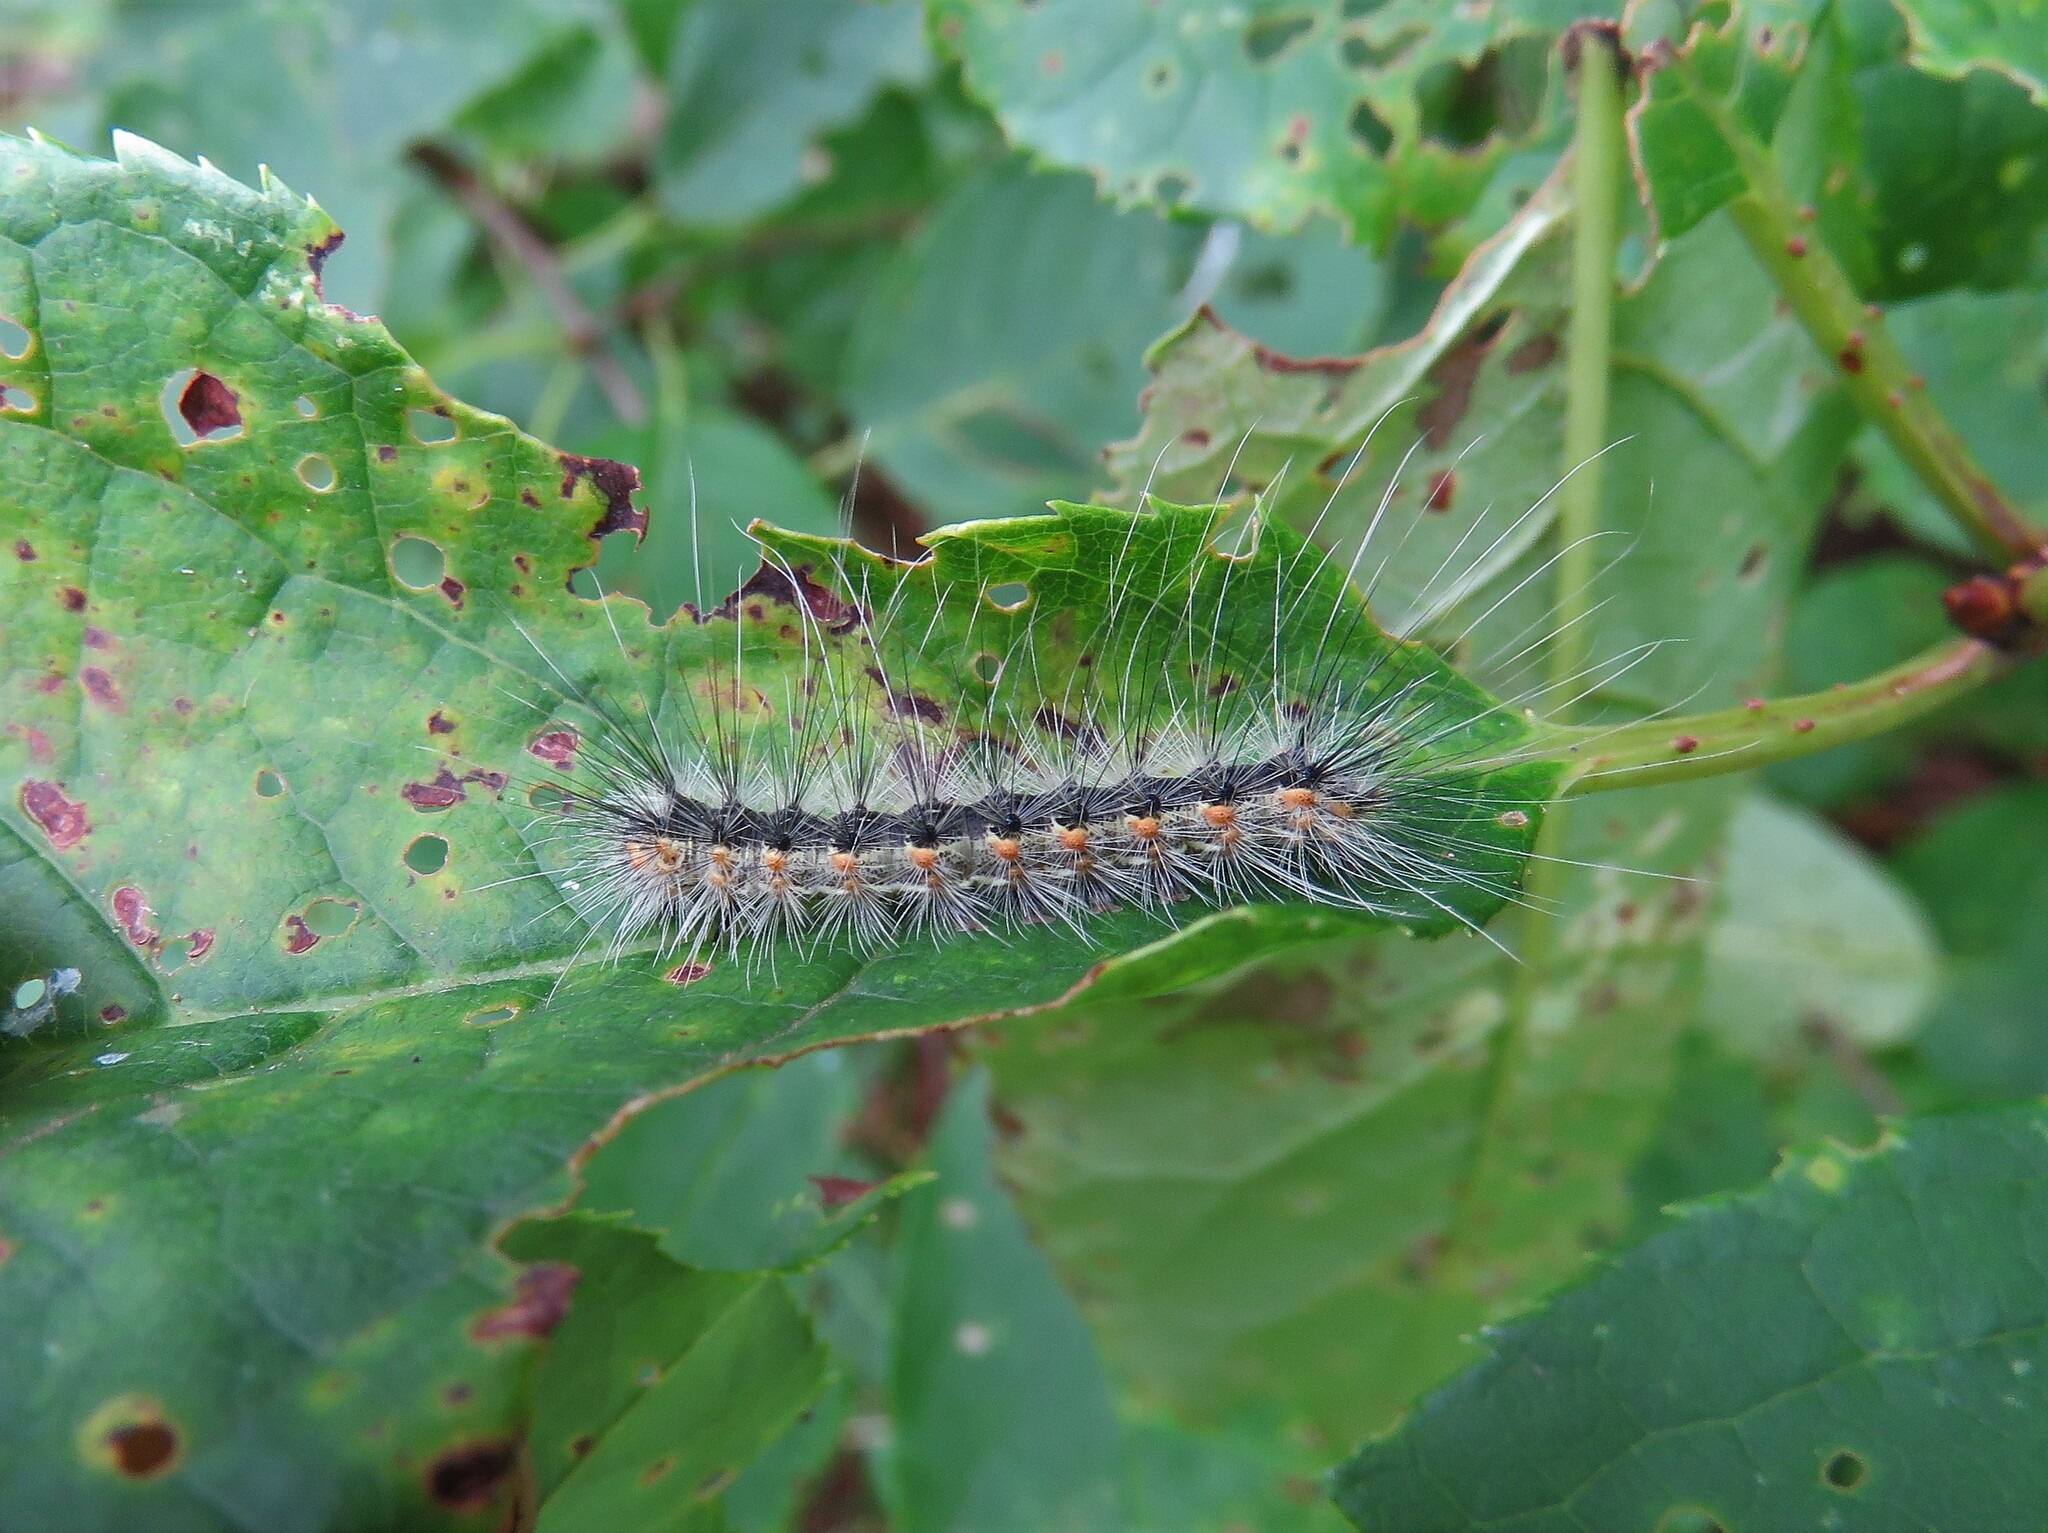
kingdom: Animalia
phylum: Arthropoda
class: Insecta
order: Lepidoptera
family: Erebidae
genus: Hyphantria
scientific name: Hyphantria cunea
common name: American white moth
